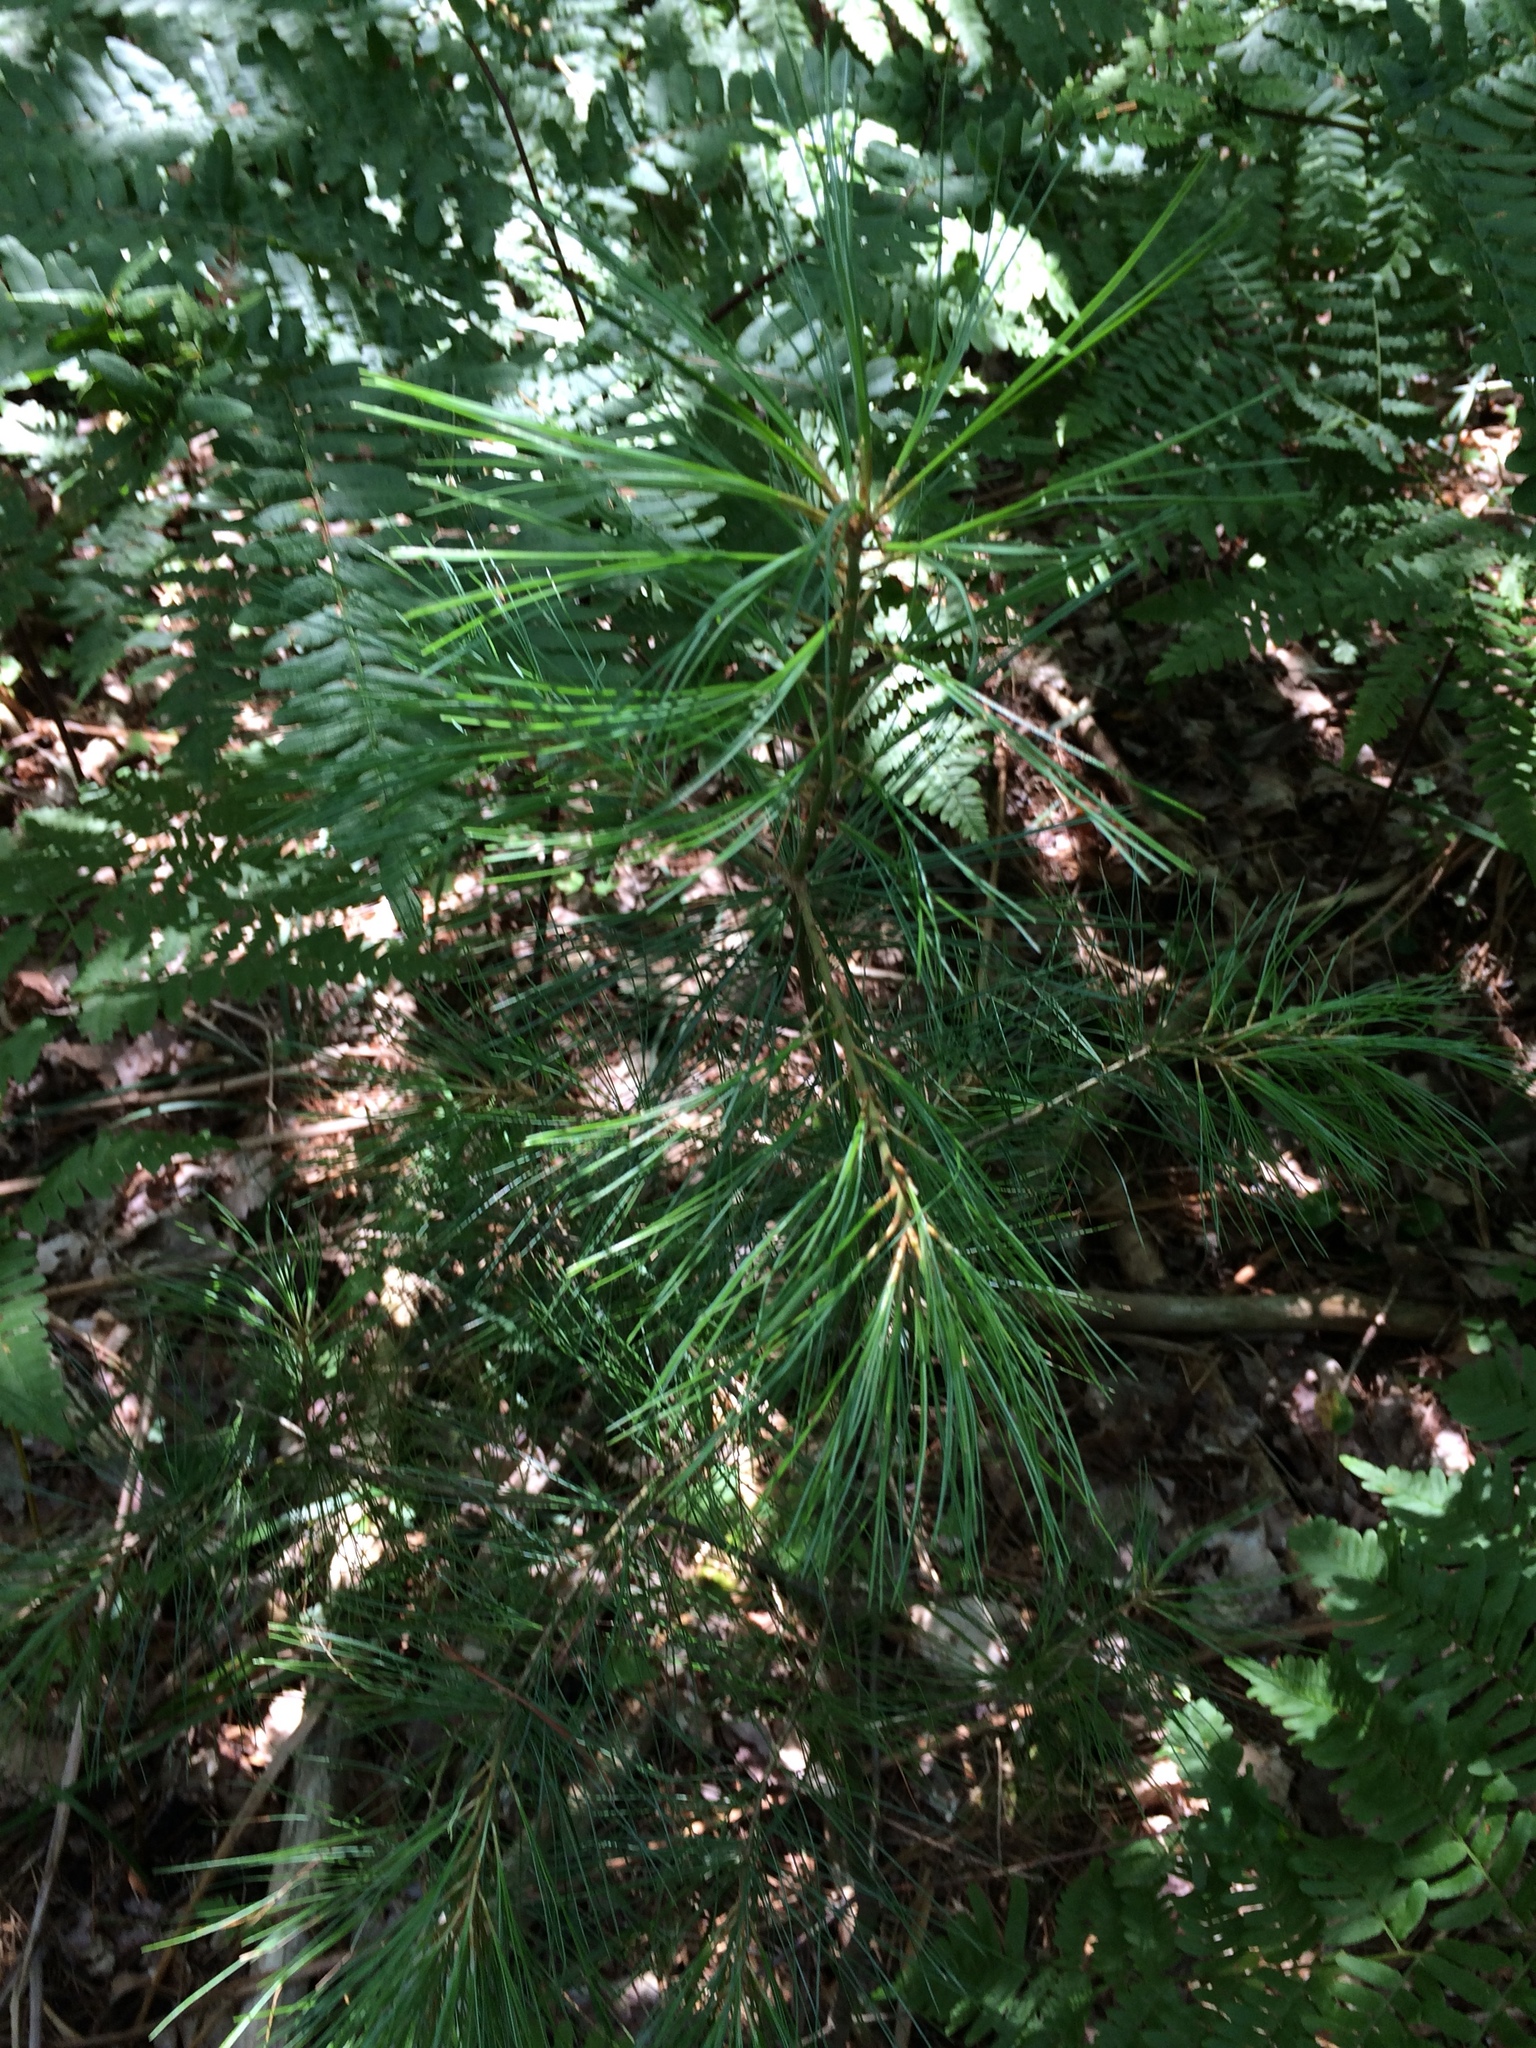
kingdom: Plantae
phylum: Tracheophyta
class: Pinopsida
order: Pinales
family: Pinaceae
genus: Pinus
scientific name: Pinus strobus
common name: Weymouth pine
